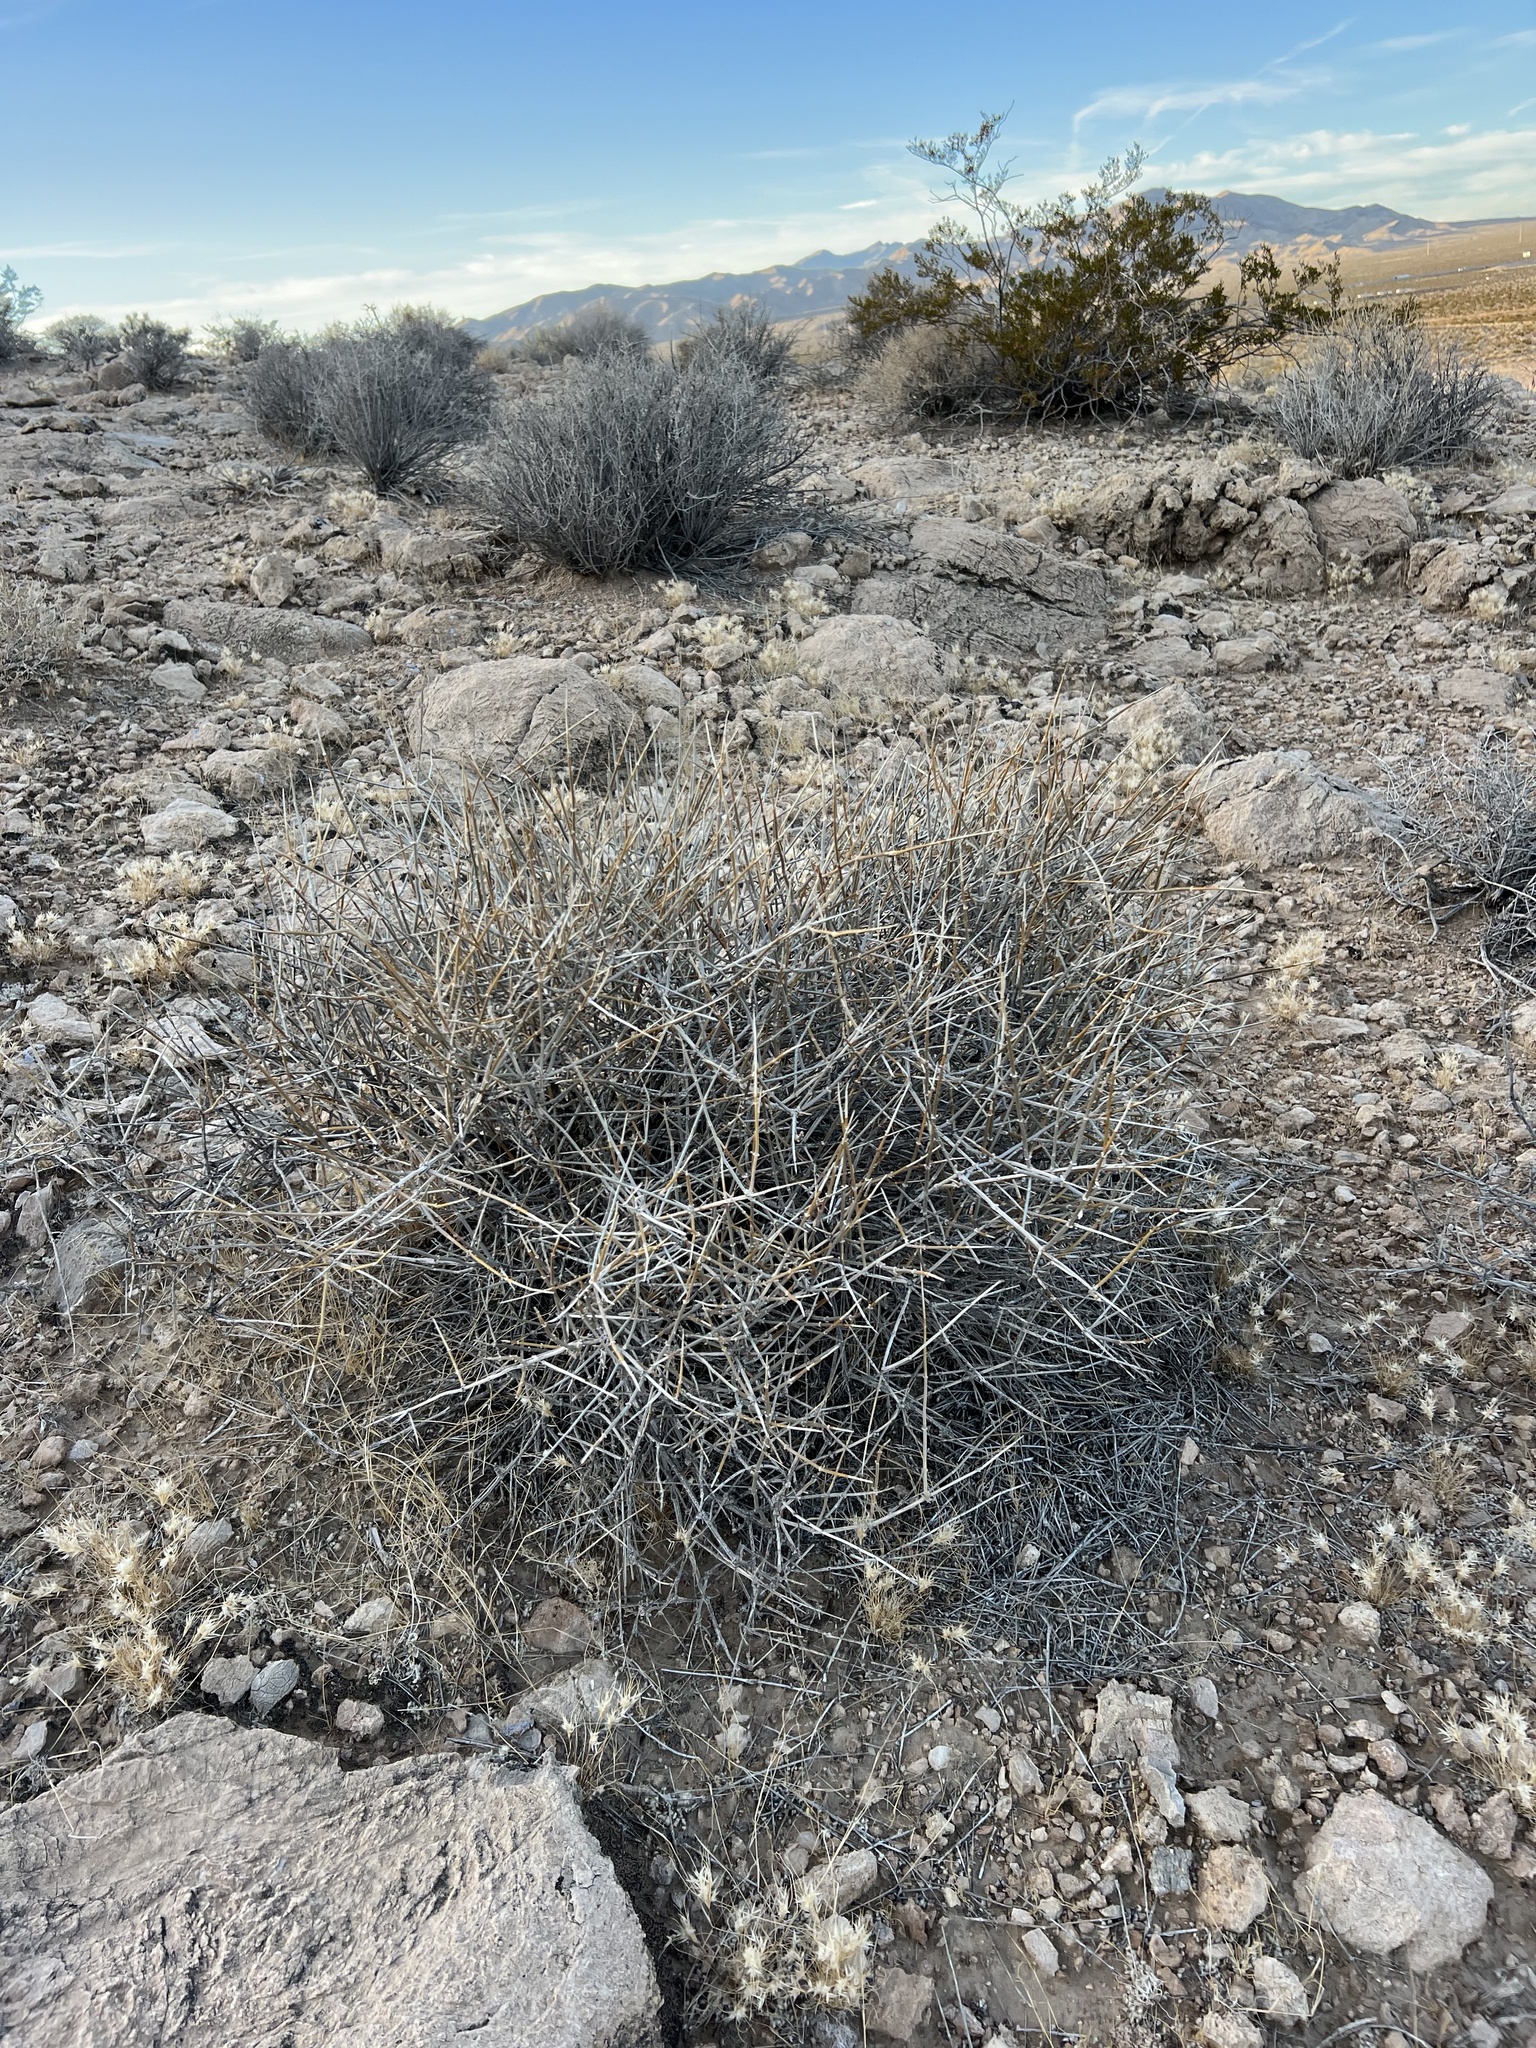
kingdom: Plantae
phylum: Tracheophyta
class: Gnetopsida
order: Ephedrales
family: Ephedraceae
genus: Ephedra
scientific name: Ephedra nevadensis
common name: Gray ephedra
